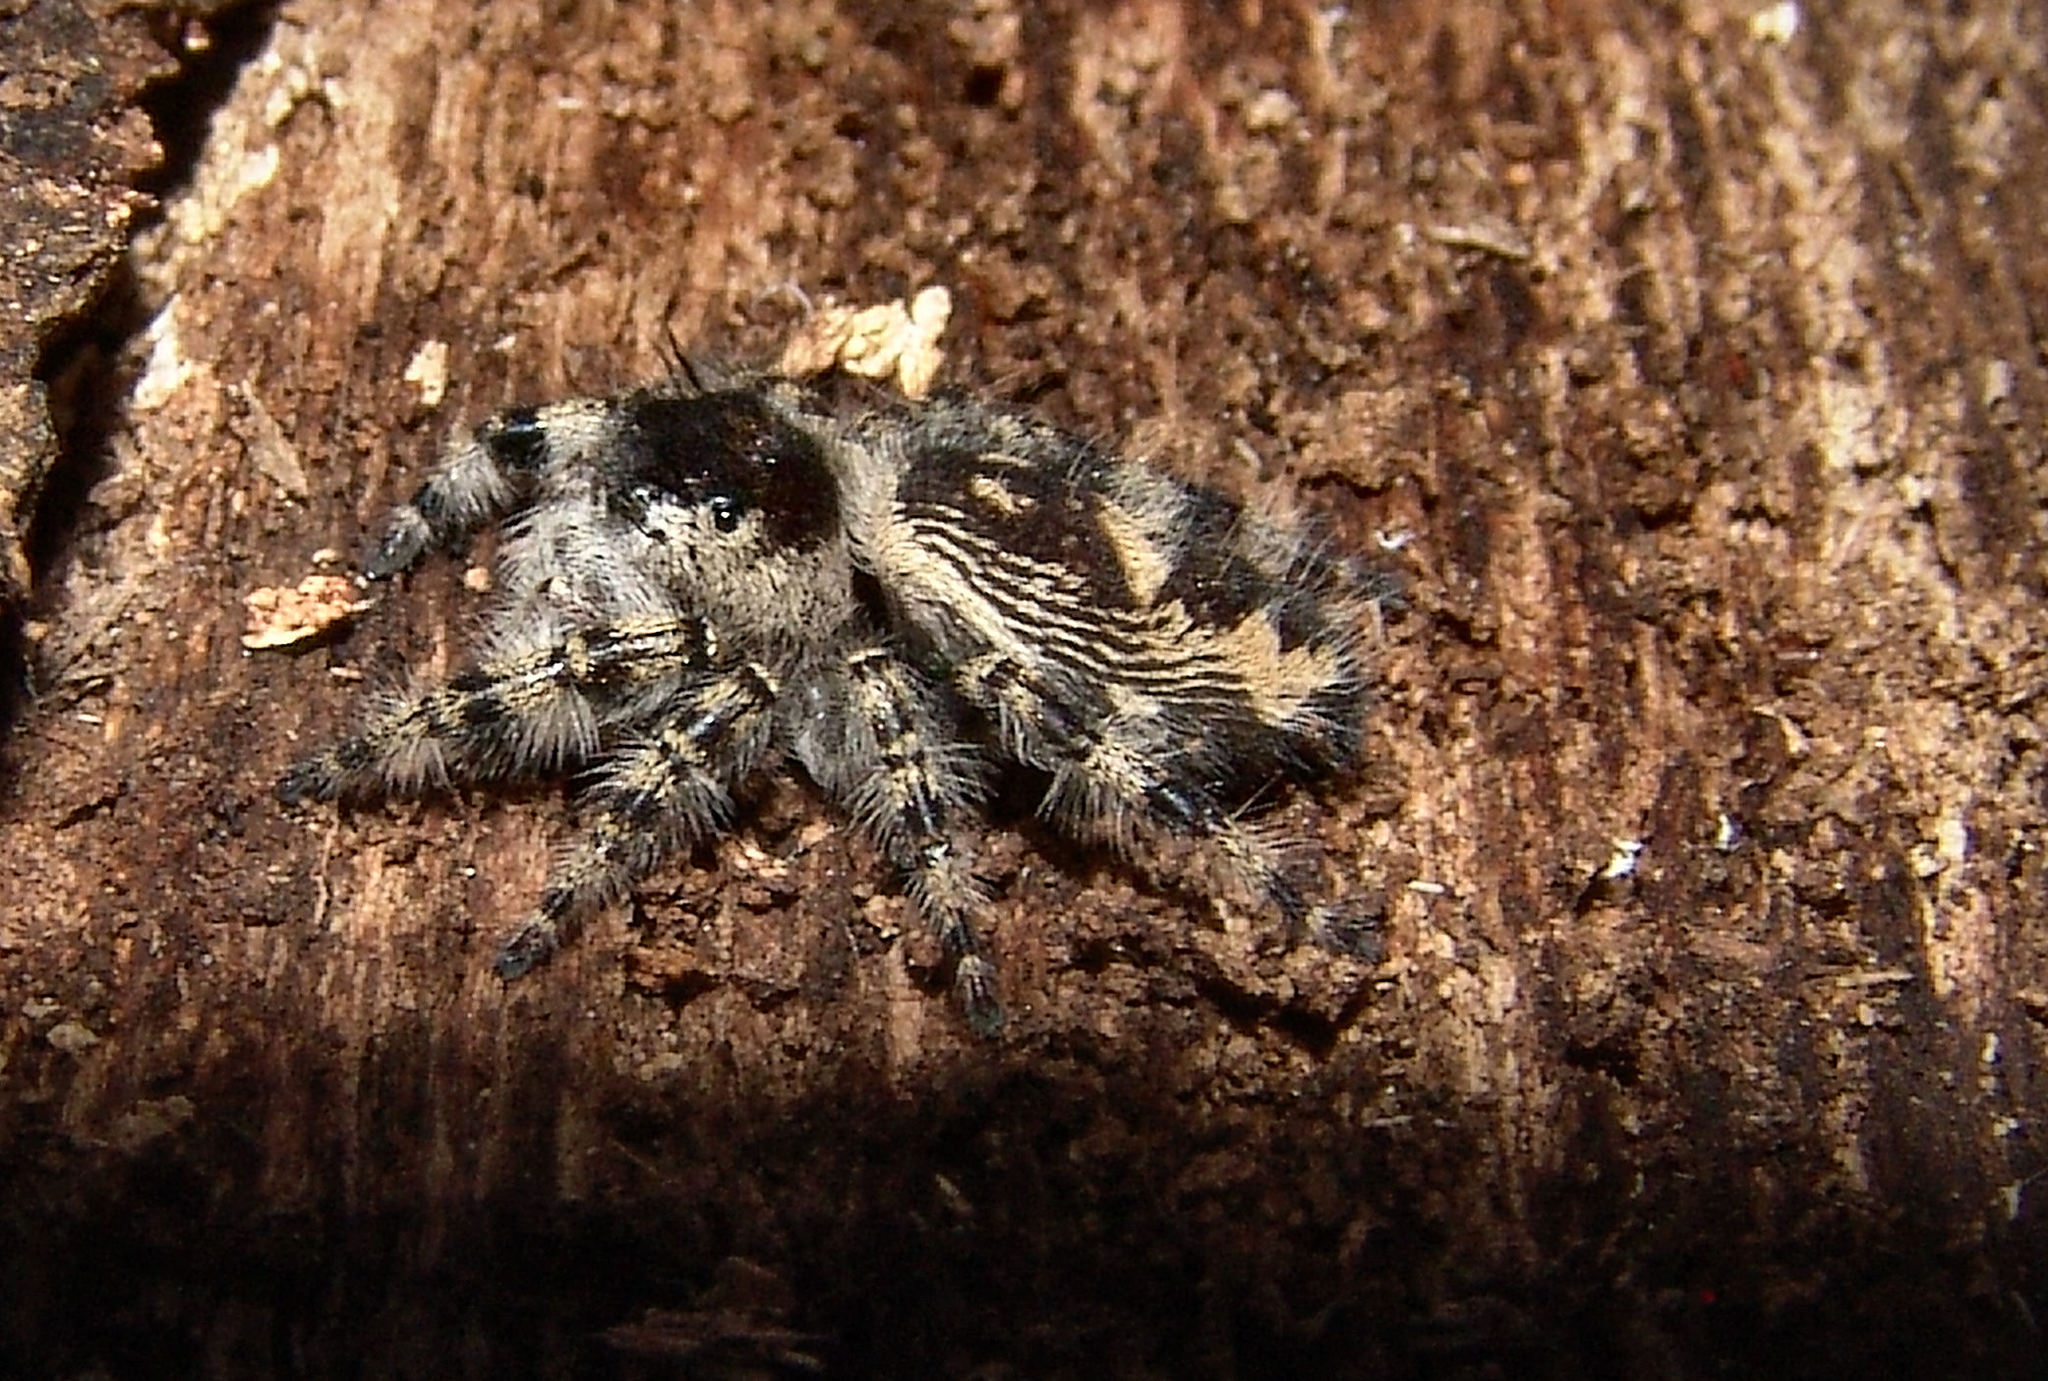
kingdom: Animalia
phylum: Arthropoda
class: Arachnida
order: Araneae
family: Salticidae
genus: Phidippus
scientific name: Phidippus otiosus
